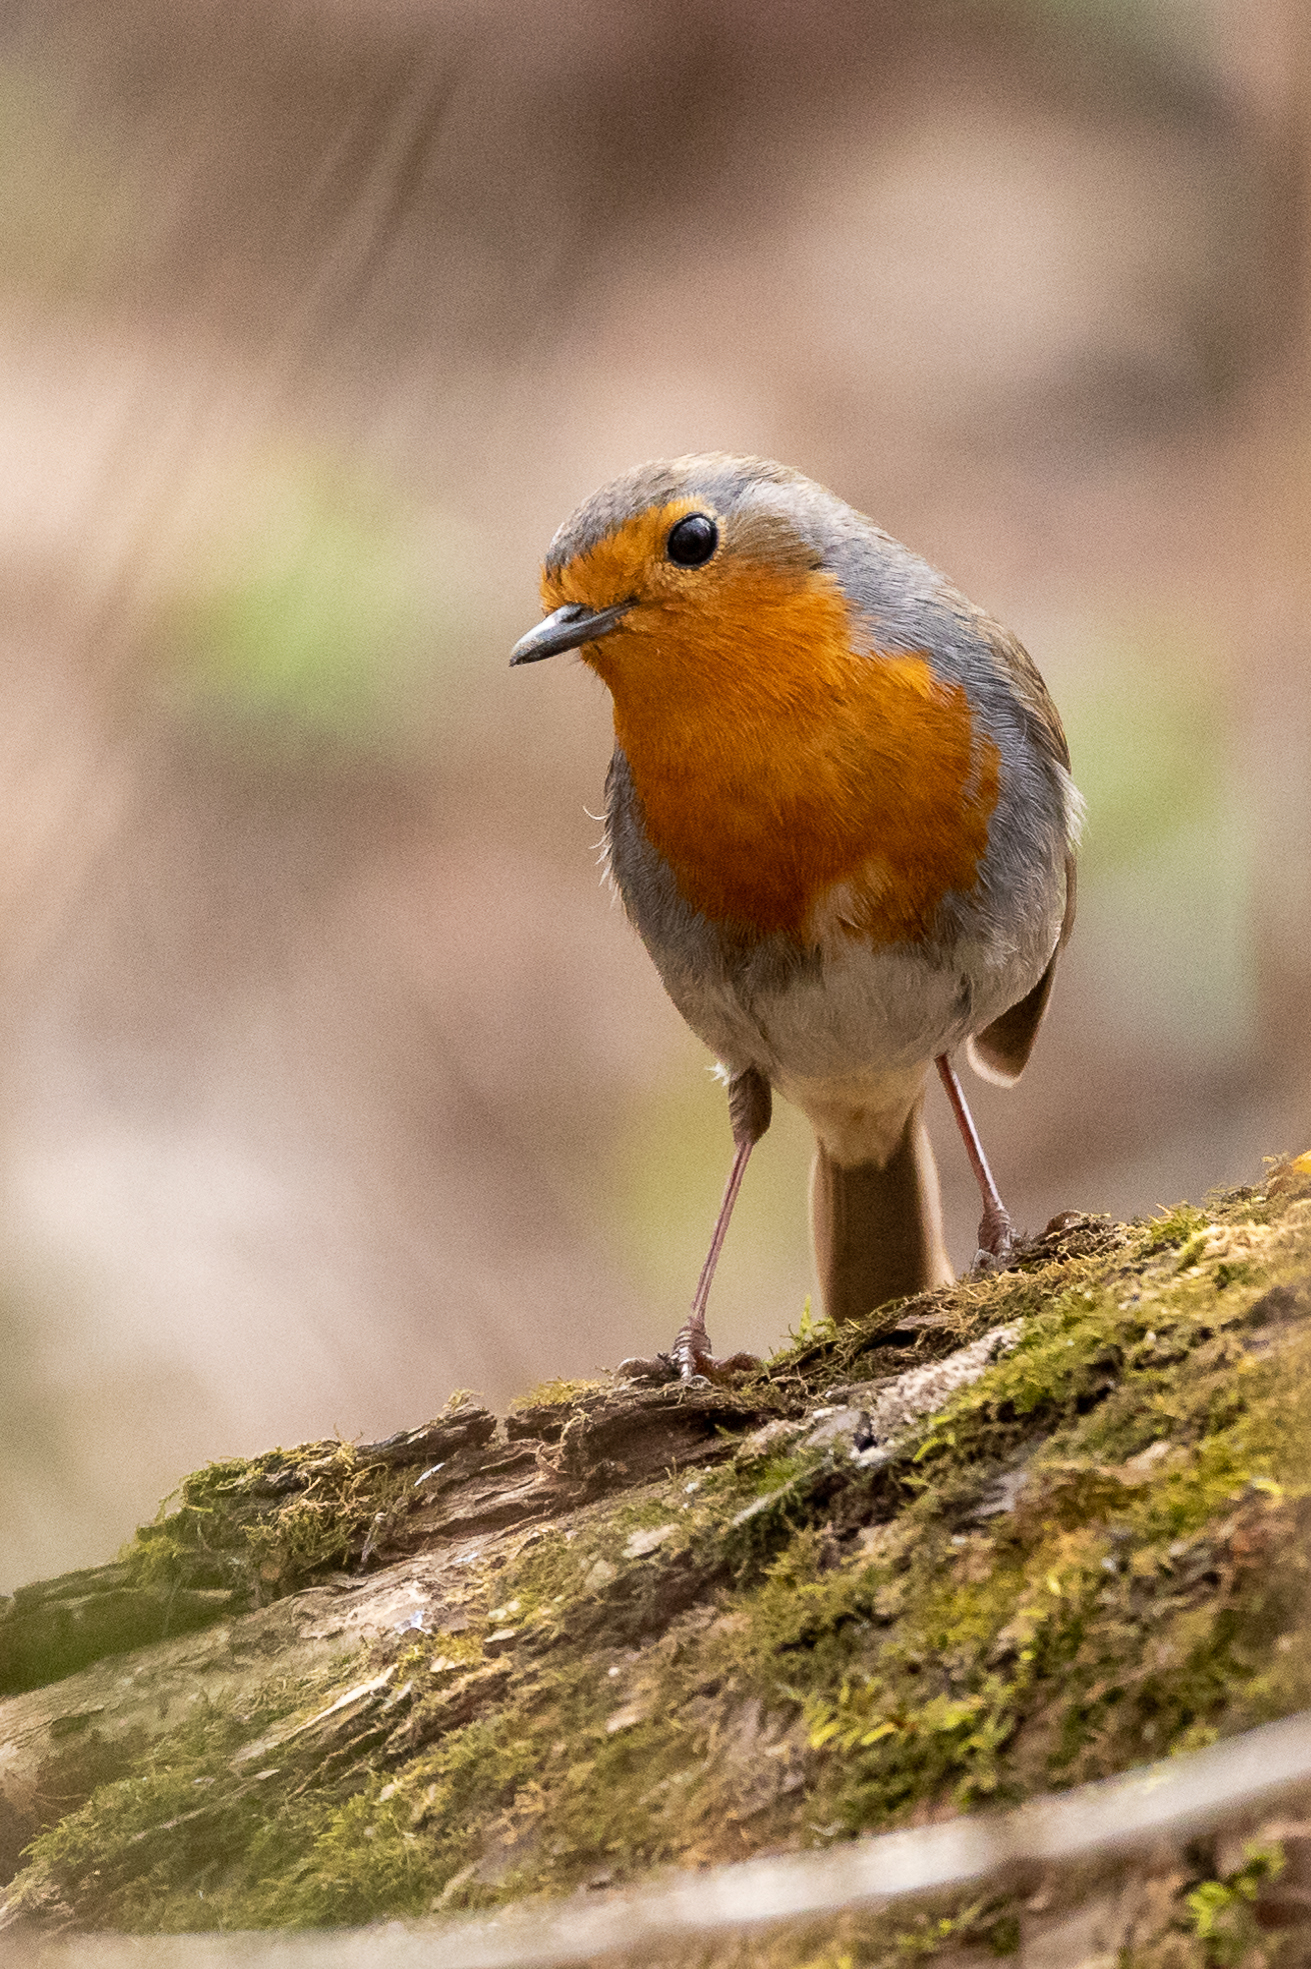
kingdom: Animalia
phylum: Chordata
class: Aves
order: Passeriformes
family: Muscicapidae
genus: Erithacus
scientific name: Erithacus rubecula
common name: European robin
